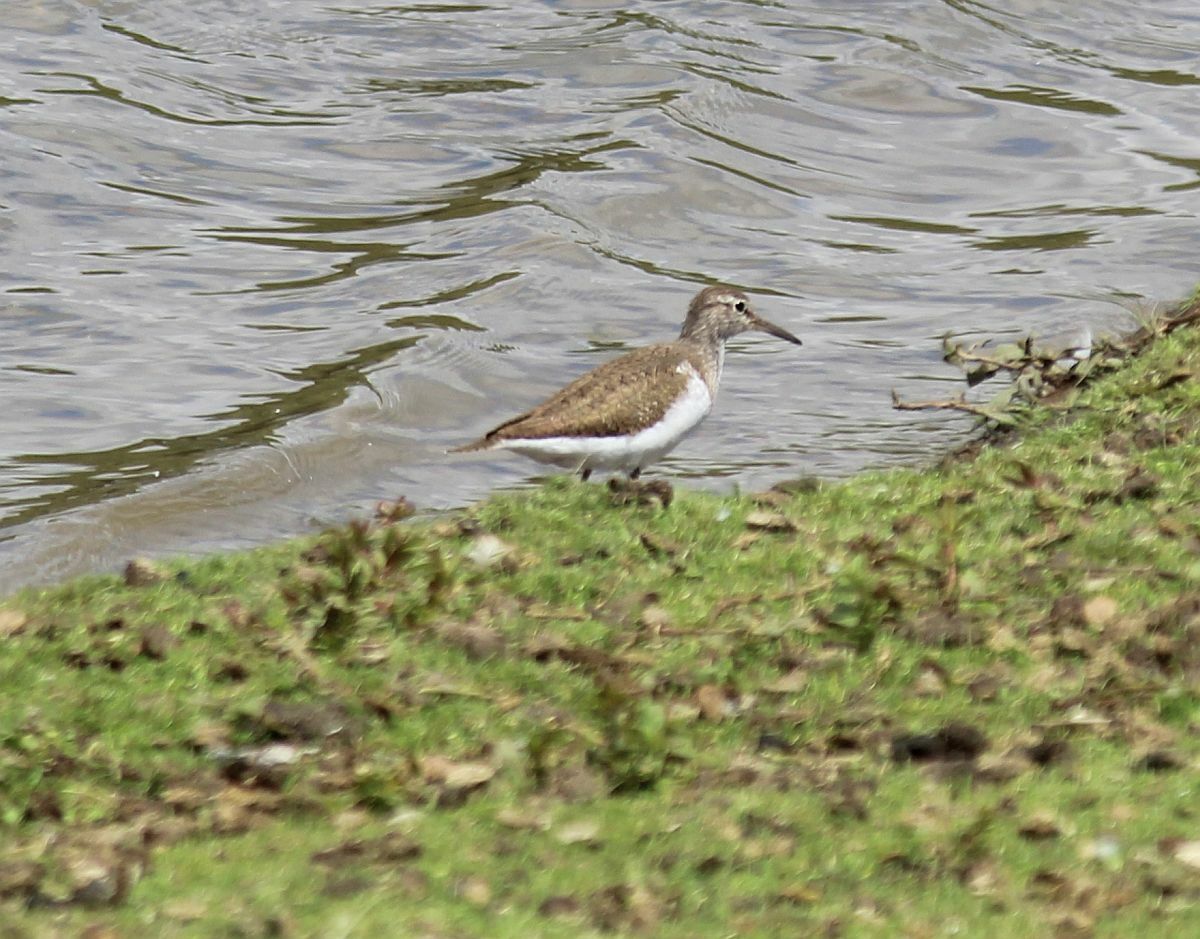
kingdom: Animalia
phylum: Chordata
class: Aves
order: Charadriiformes
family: Scolopacidae
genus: Actitis
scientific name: Actitis hypoleucos
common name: Common sandpiper
